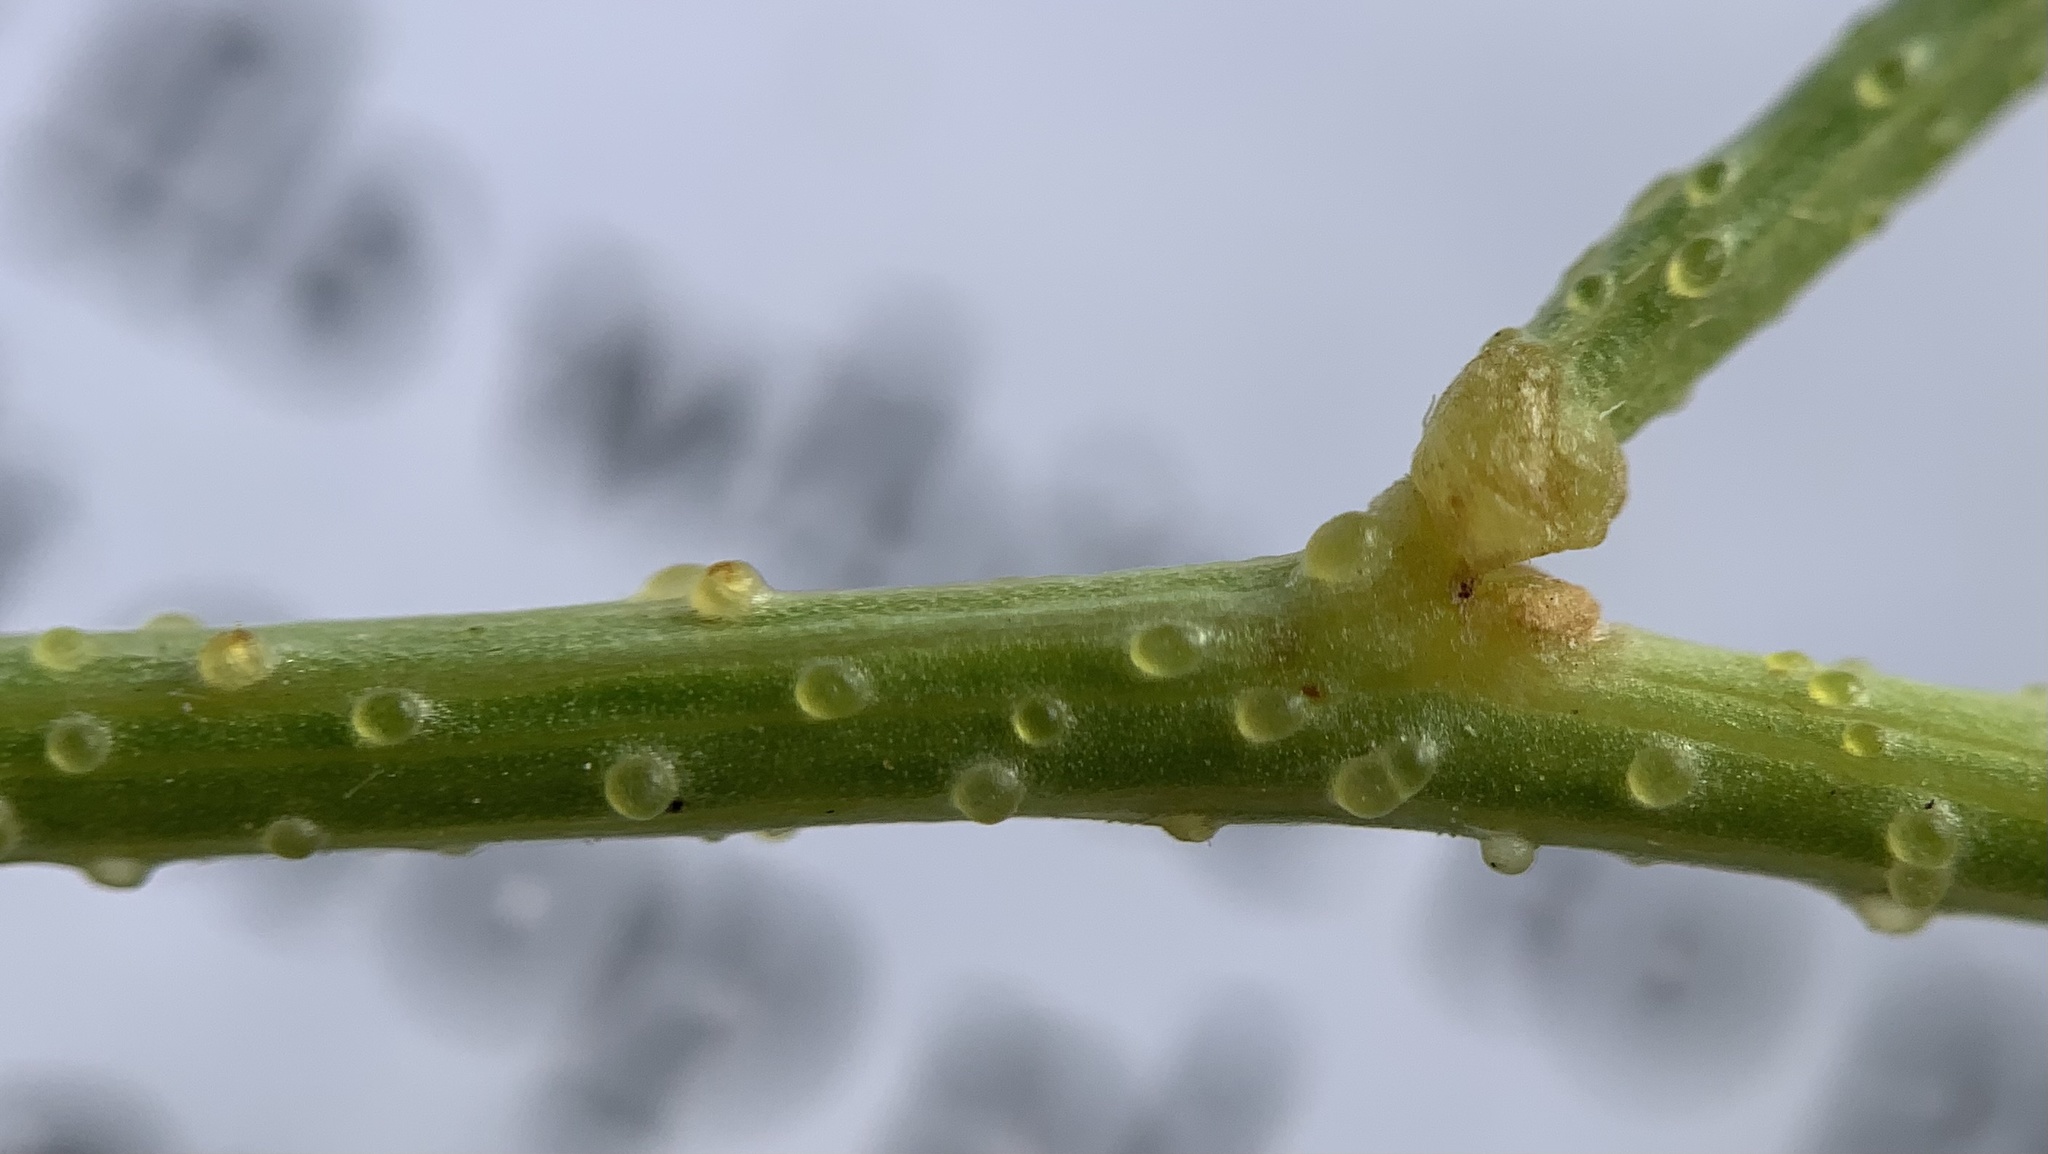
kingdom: Plantae
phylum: Tracheophyta
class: Magnoliopsida
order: Fabales
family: Fabaceae
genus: Ladeania
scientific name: Ladeania lanceolata
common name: Dune scurf-pea
